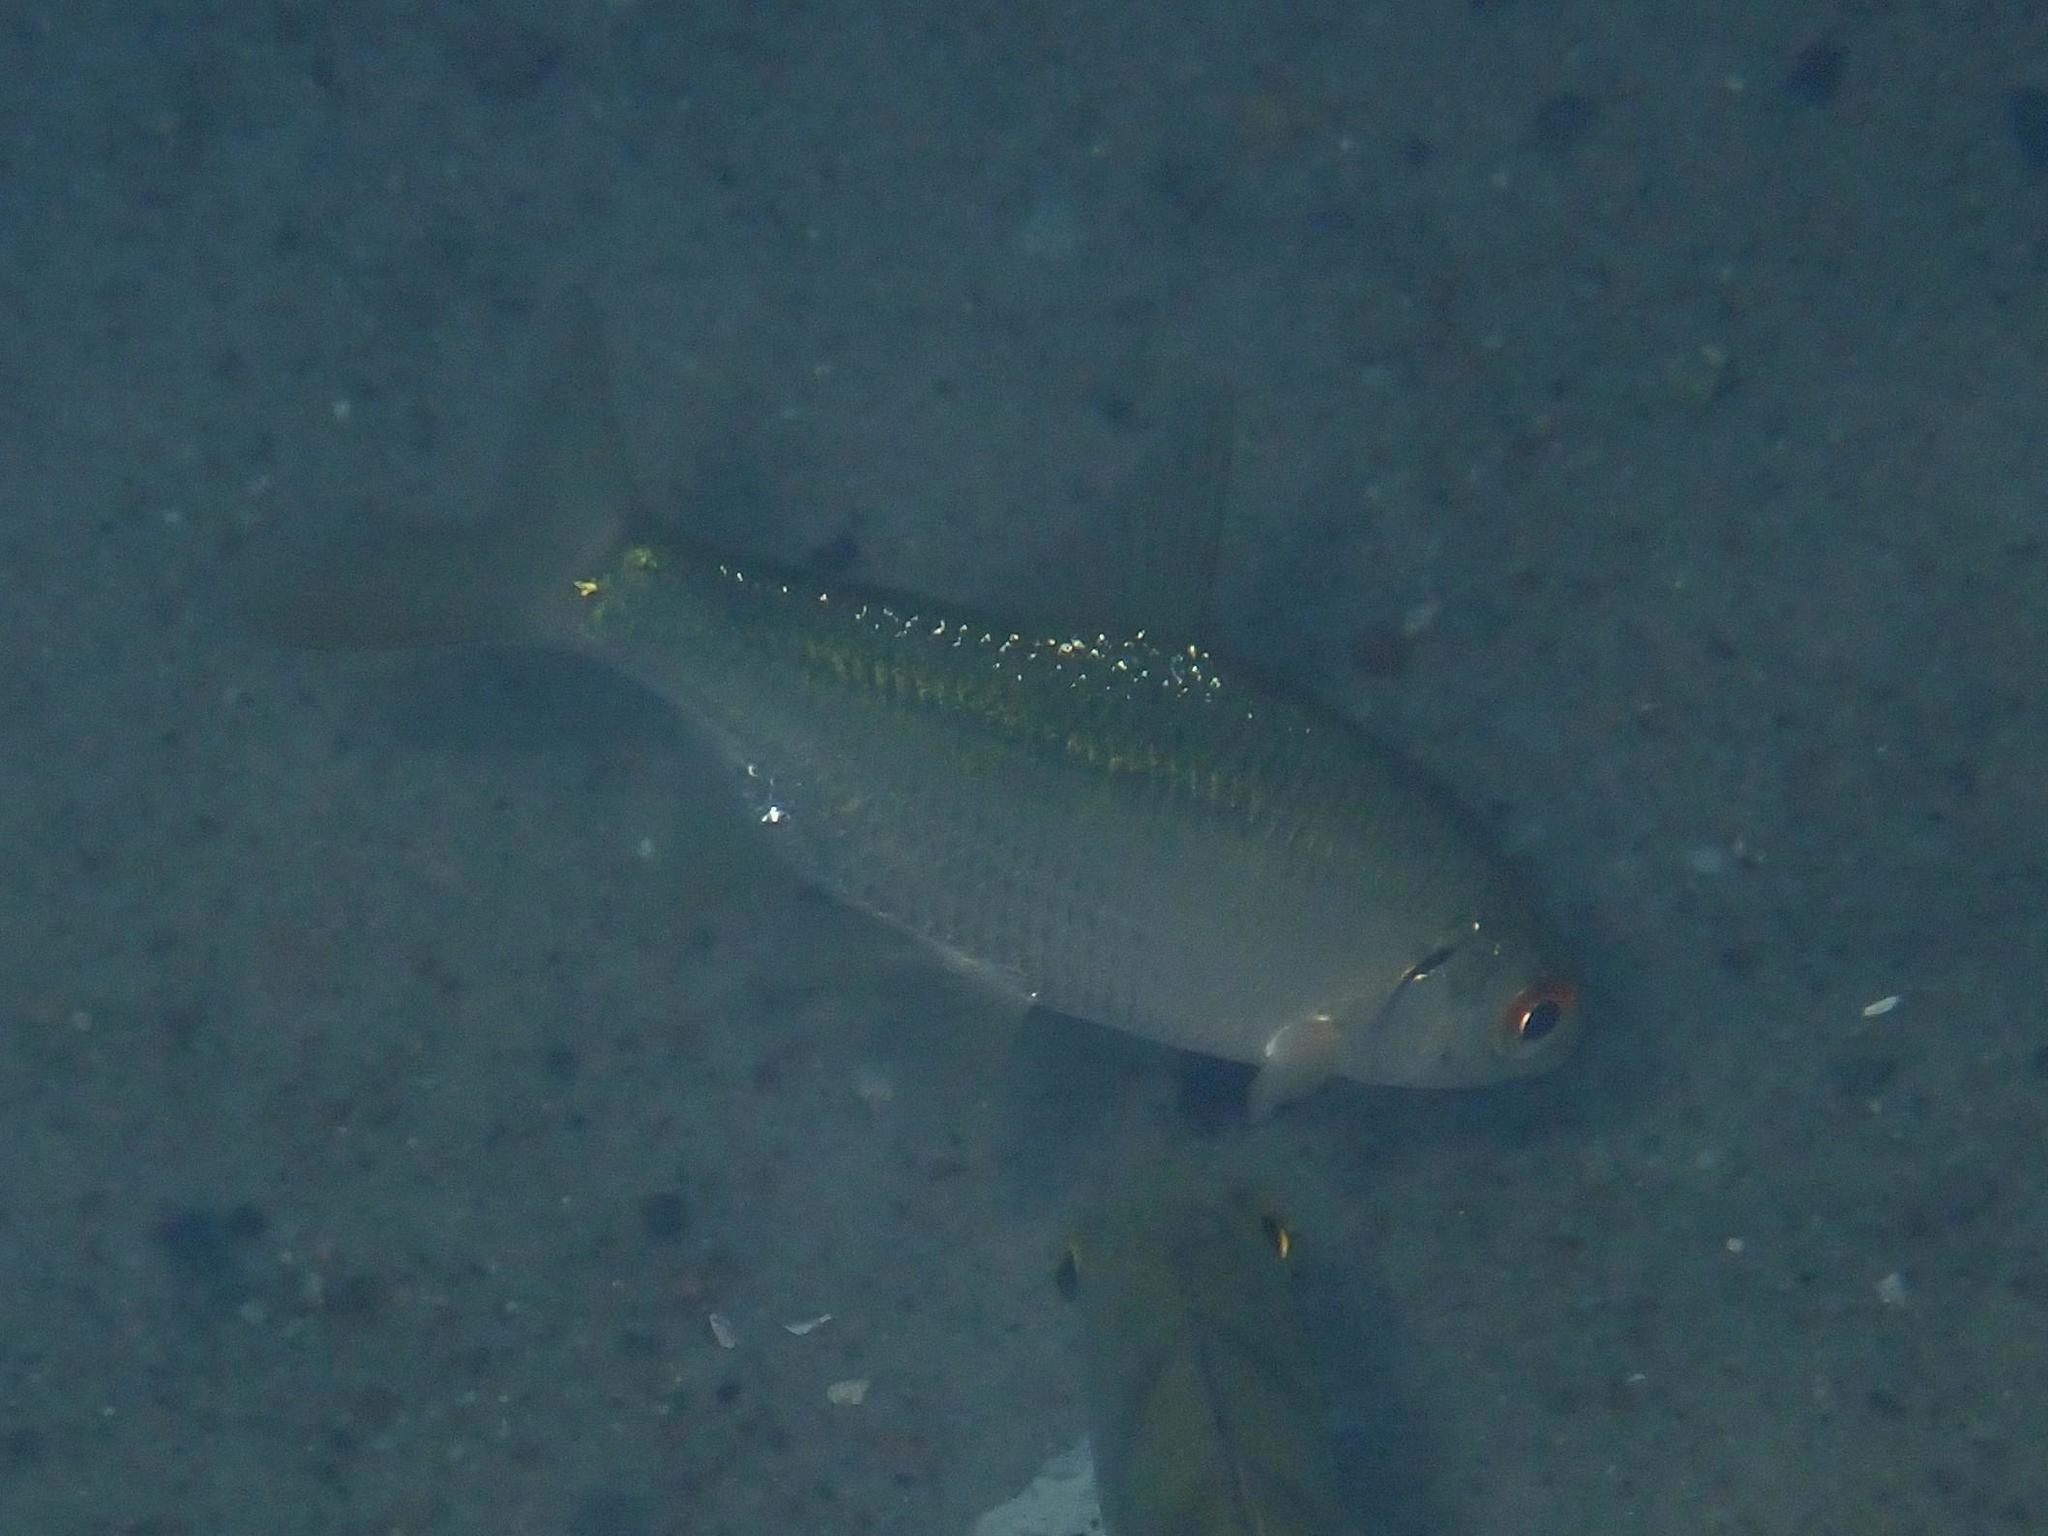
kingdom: Animalia
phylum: Chordata
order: Cypriniformes
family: Cyprinidae
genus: Rutilus
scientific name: Rutilus rutilus
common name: Roach
